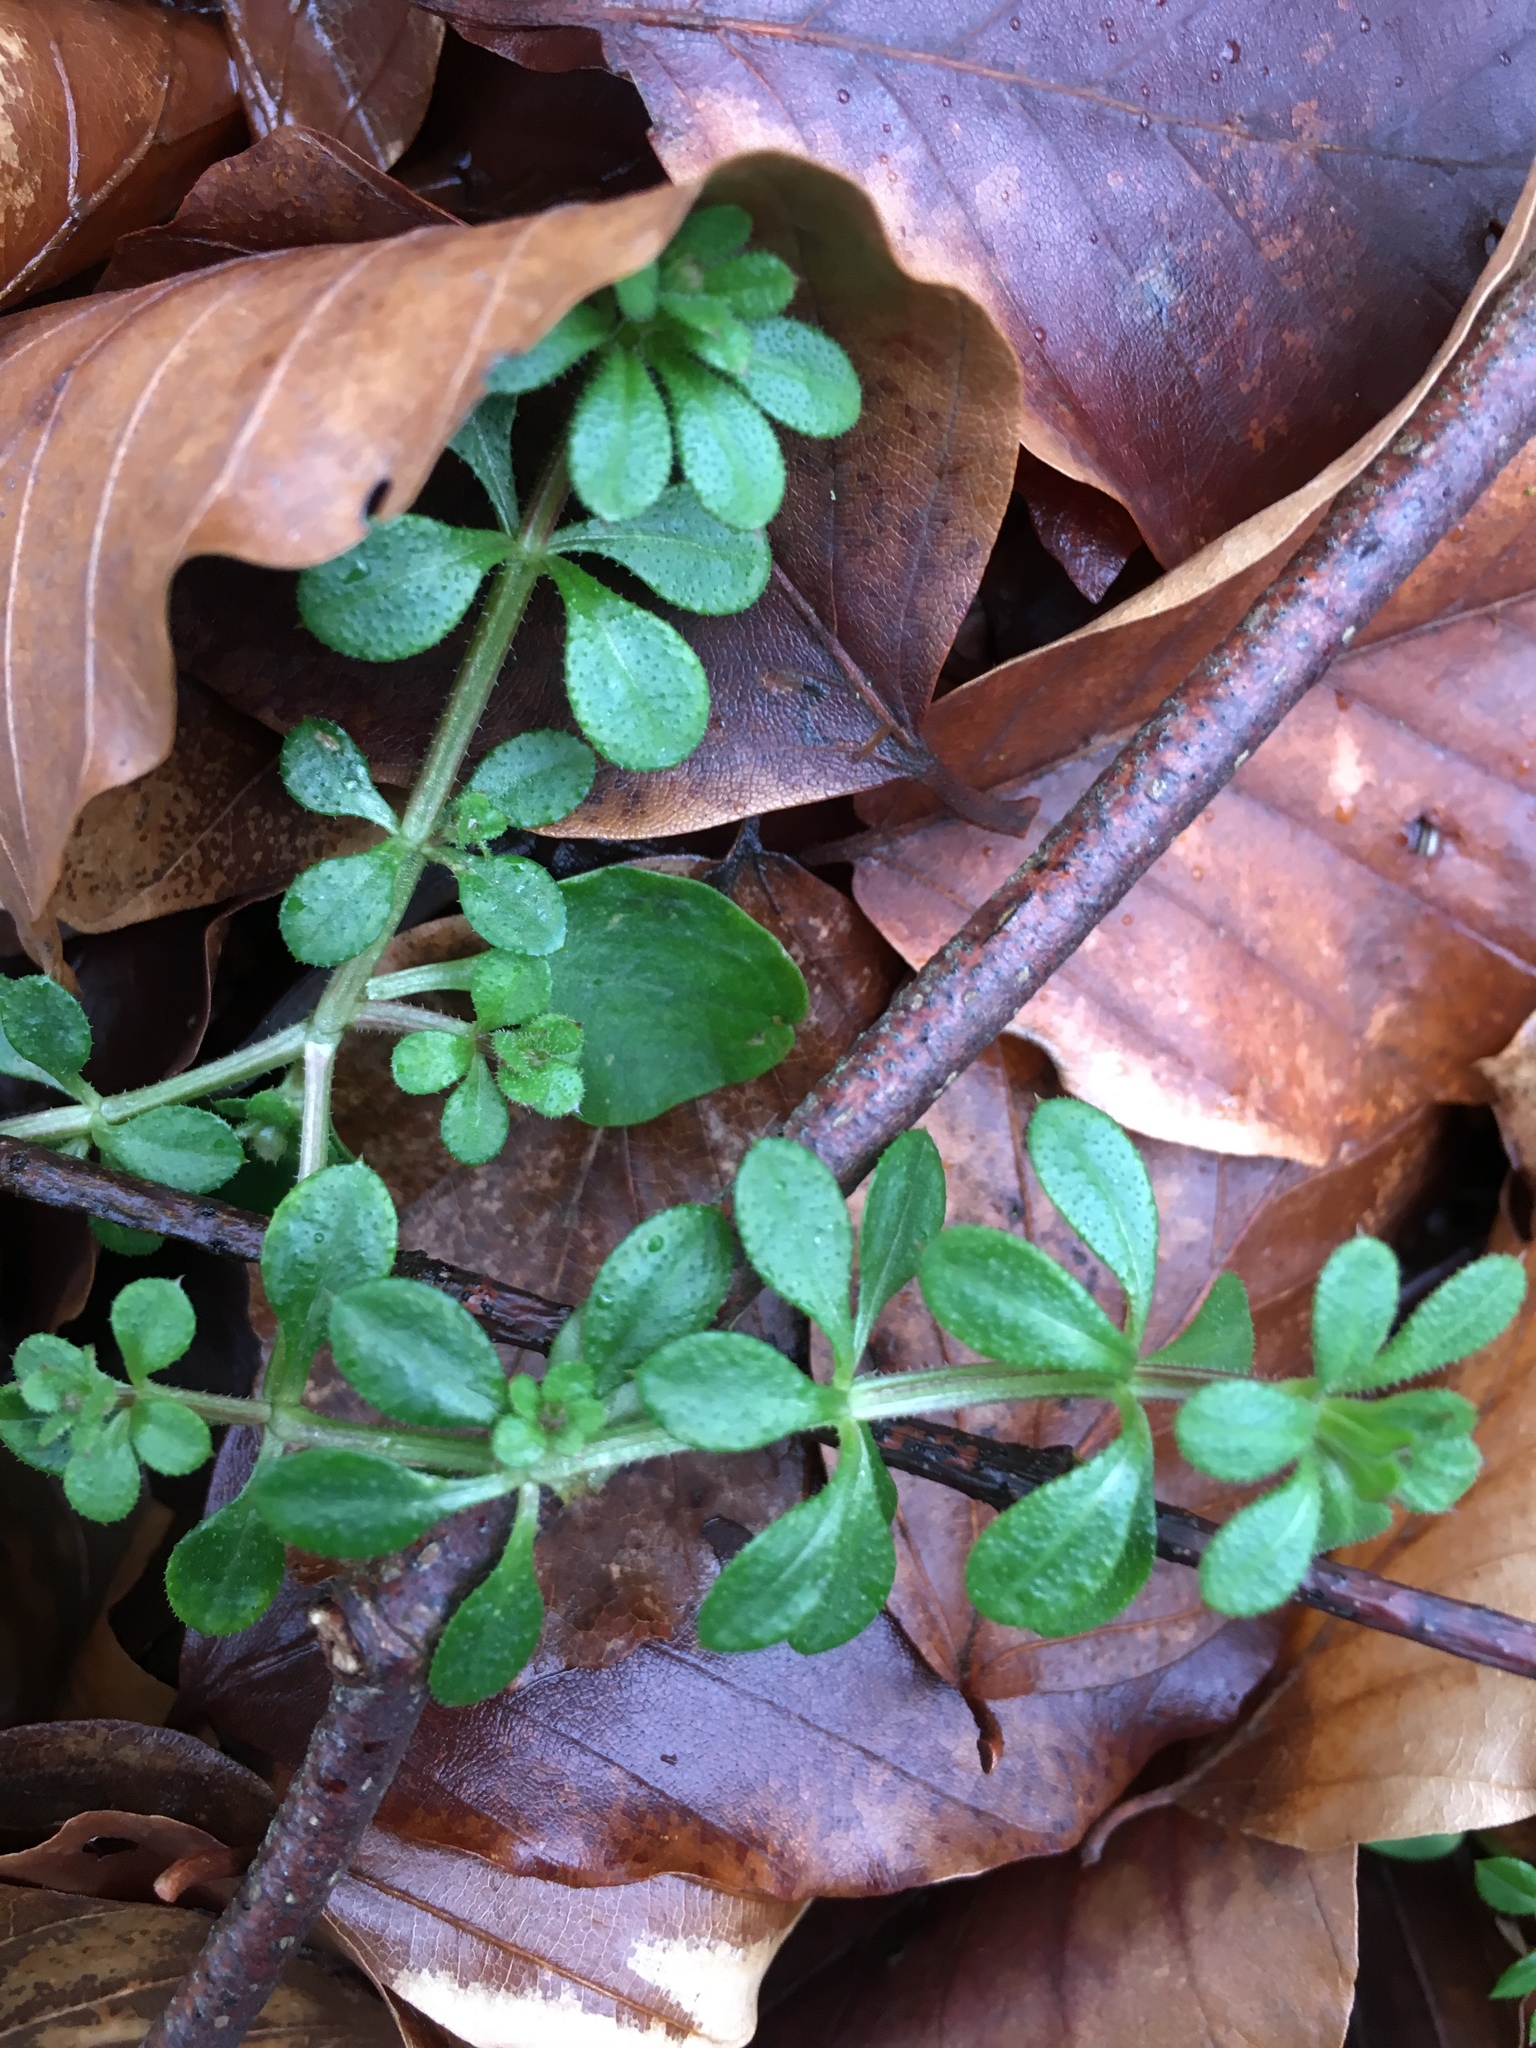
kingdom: Plantae
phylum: Tracheophyta
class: Magnoliopsida
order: Gentianales
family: Rubiaceae
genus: Galium
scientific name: Galium aparine
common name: Cleavers
